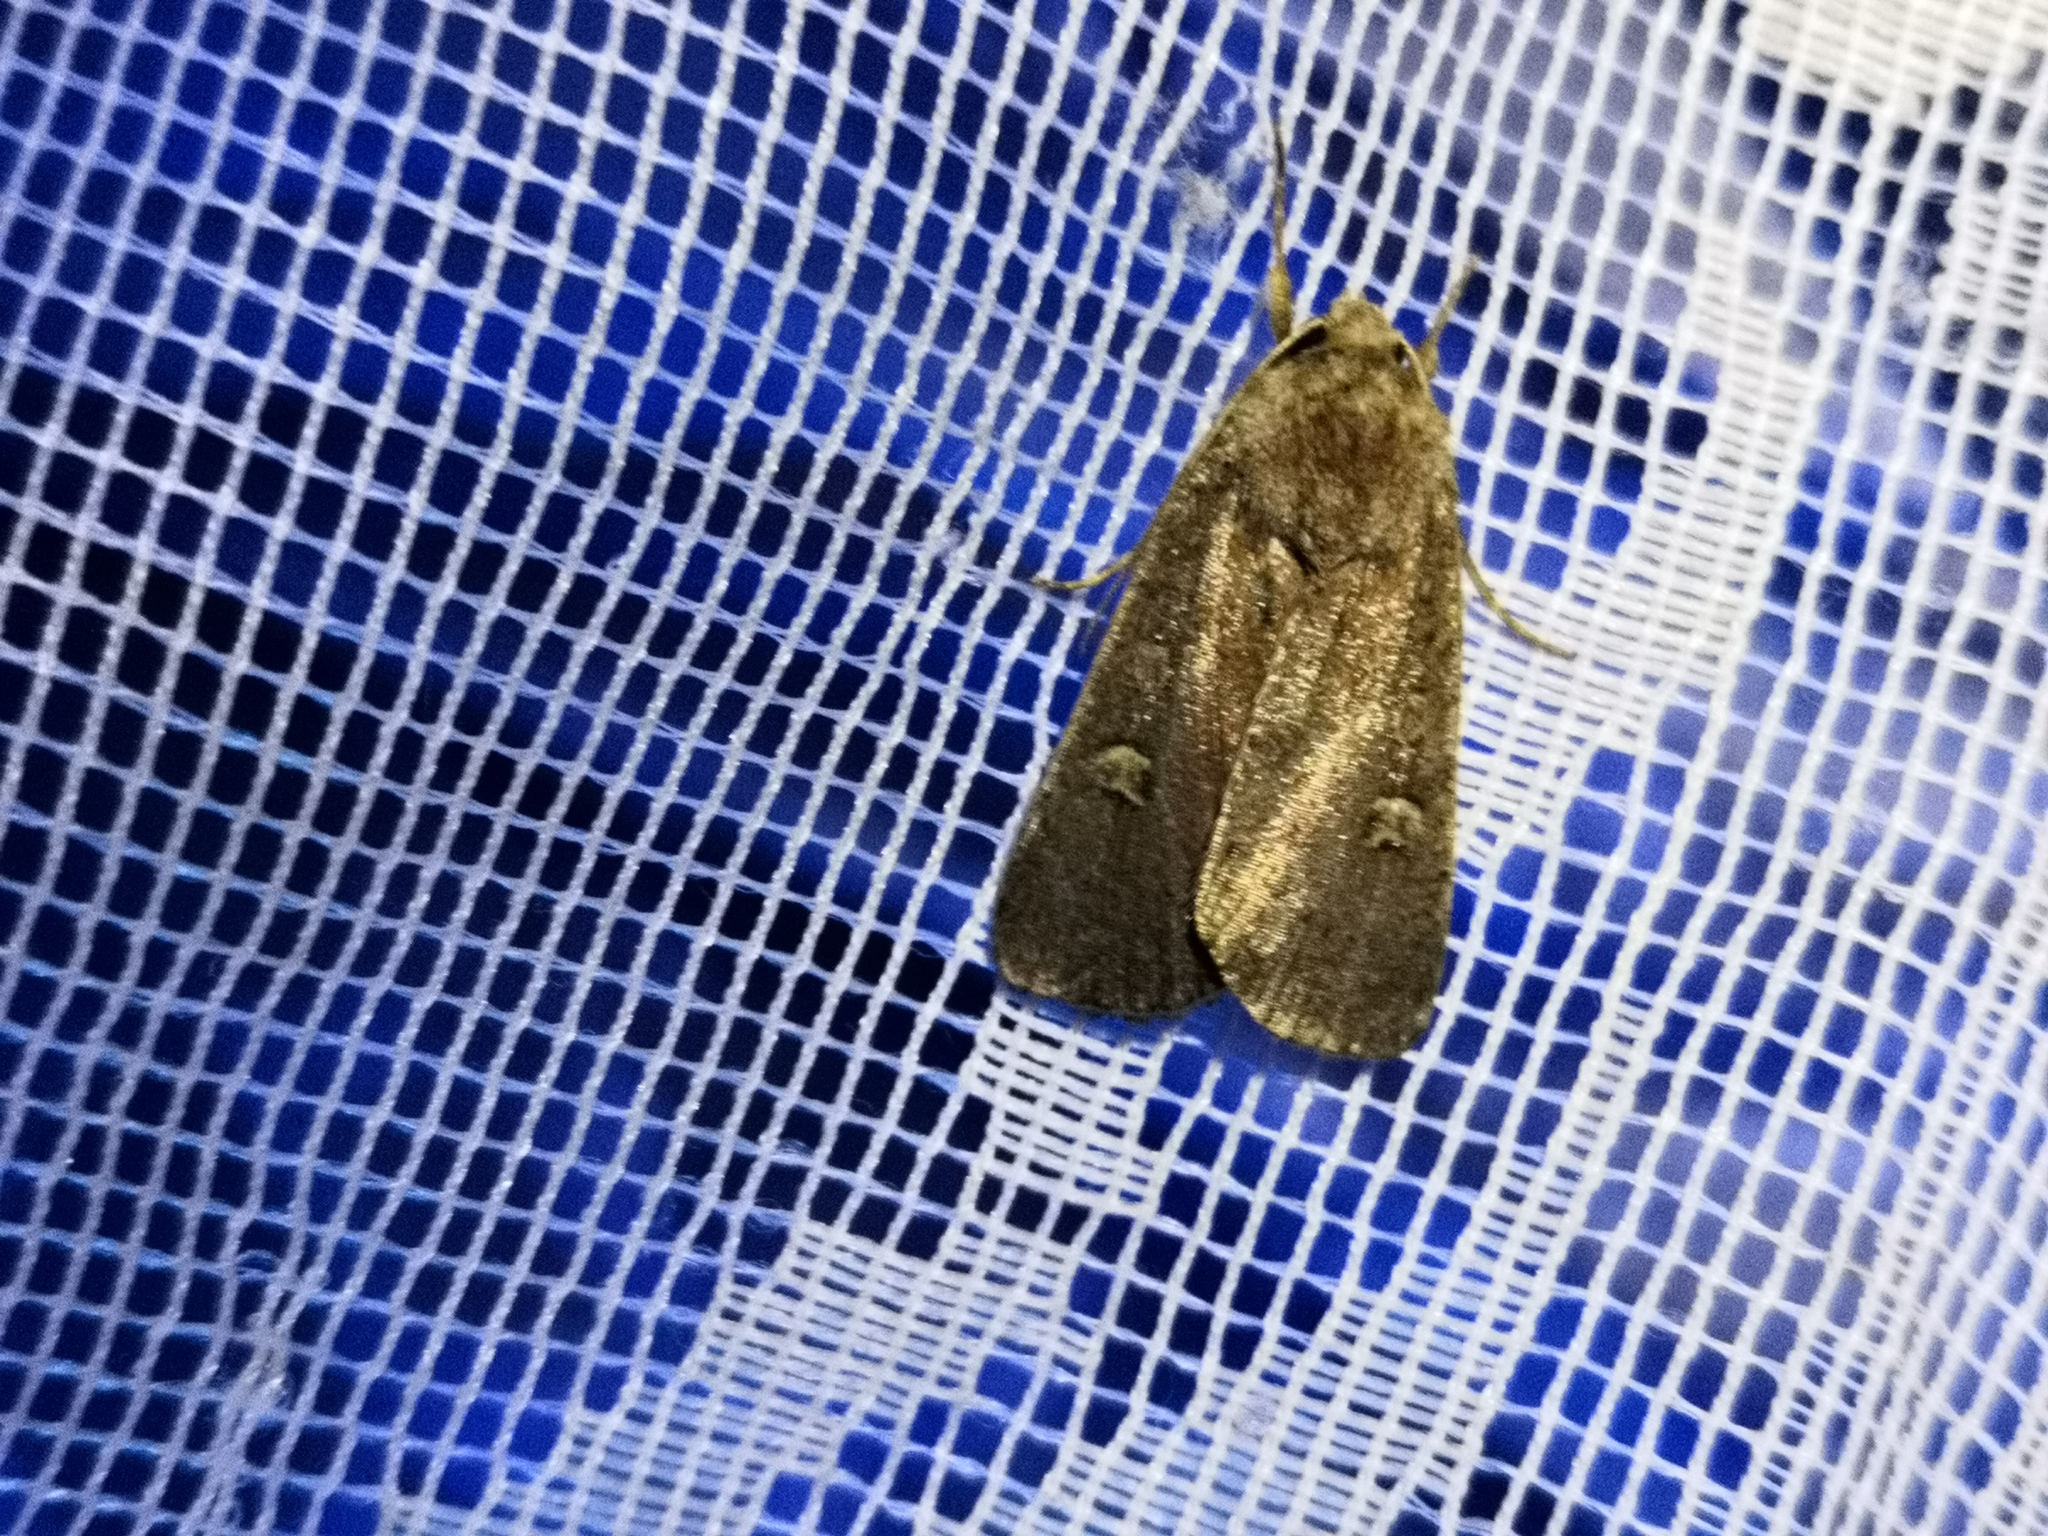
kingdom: Animalia
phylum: Arthropoda
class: Insecta
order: Lepidoptera
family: Noctuidae
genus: Xestia
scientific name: Xestia xanthographa
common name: Square-spot rustic
